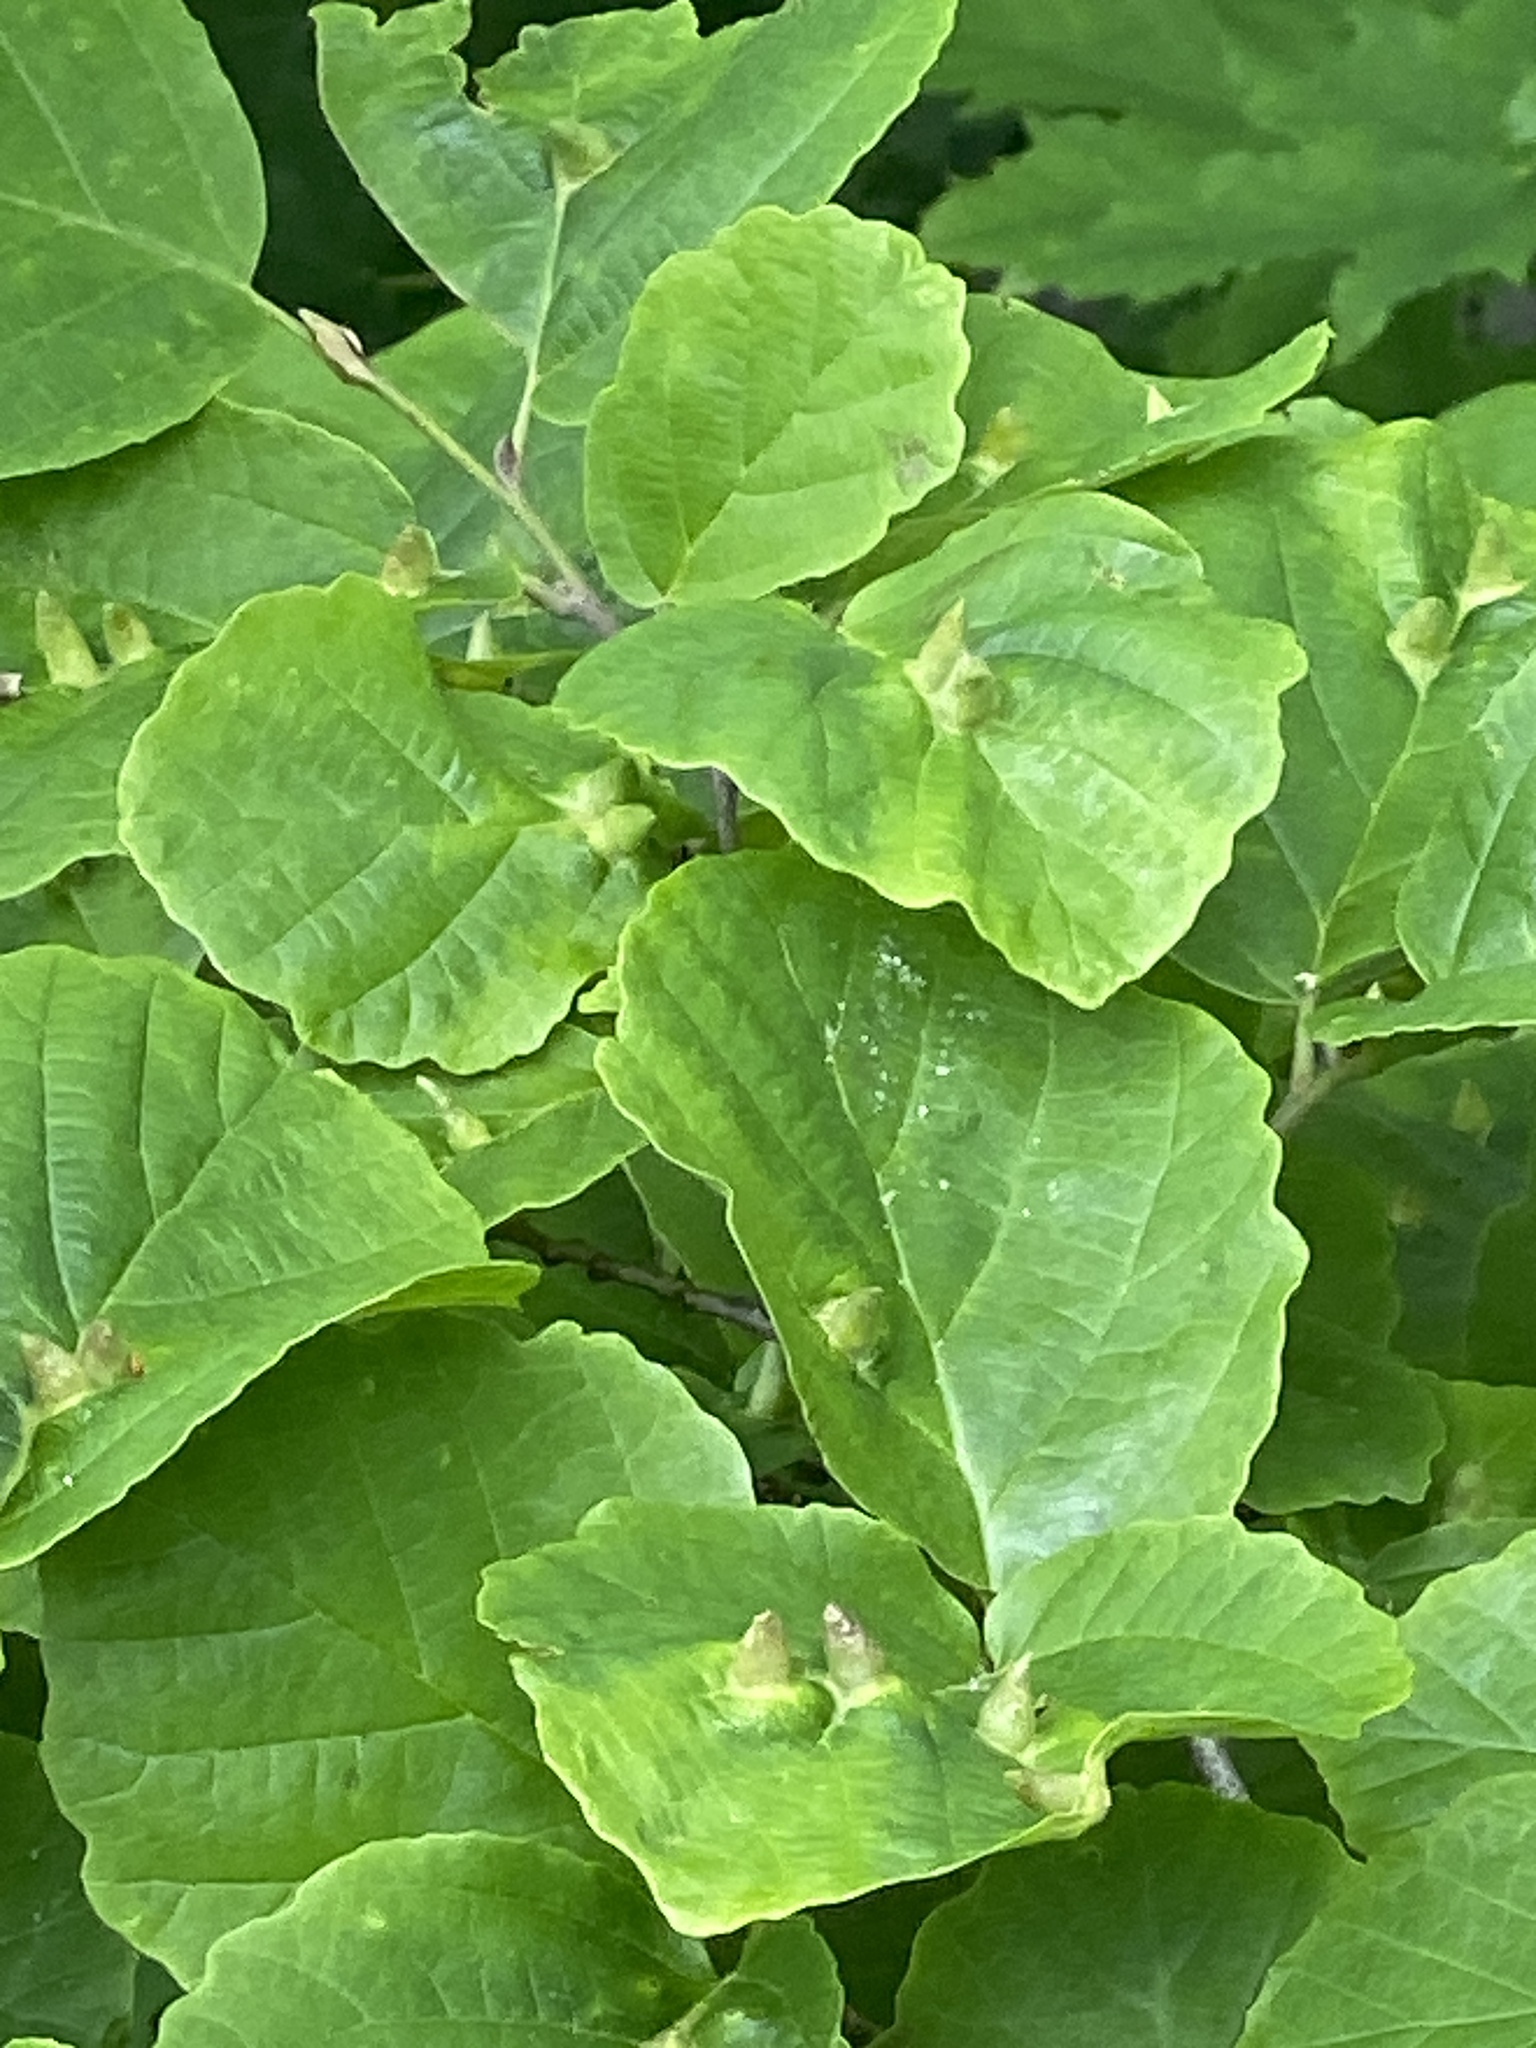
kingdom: Animalia
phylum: Arthropoda
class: Insecta
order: Hemiptera
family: Aphididae
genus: Hormaphis
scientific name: Hormaphis hamamelidis
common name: Witch-hazel cone gall aphid
